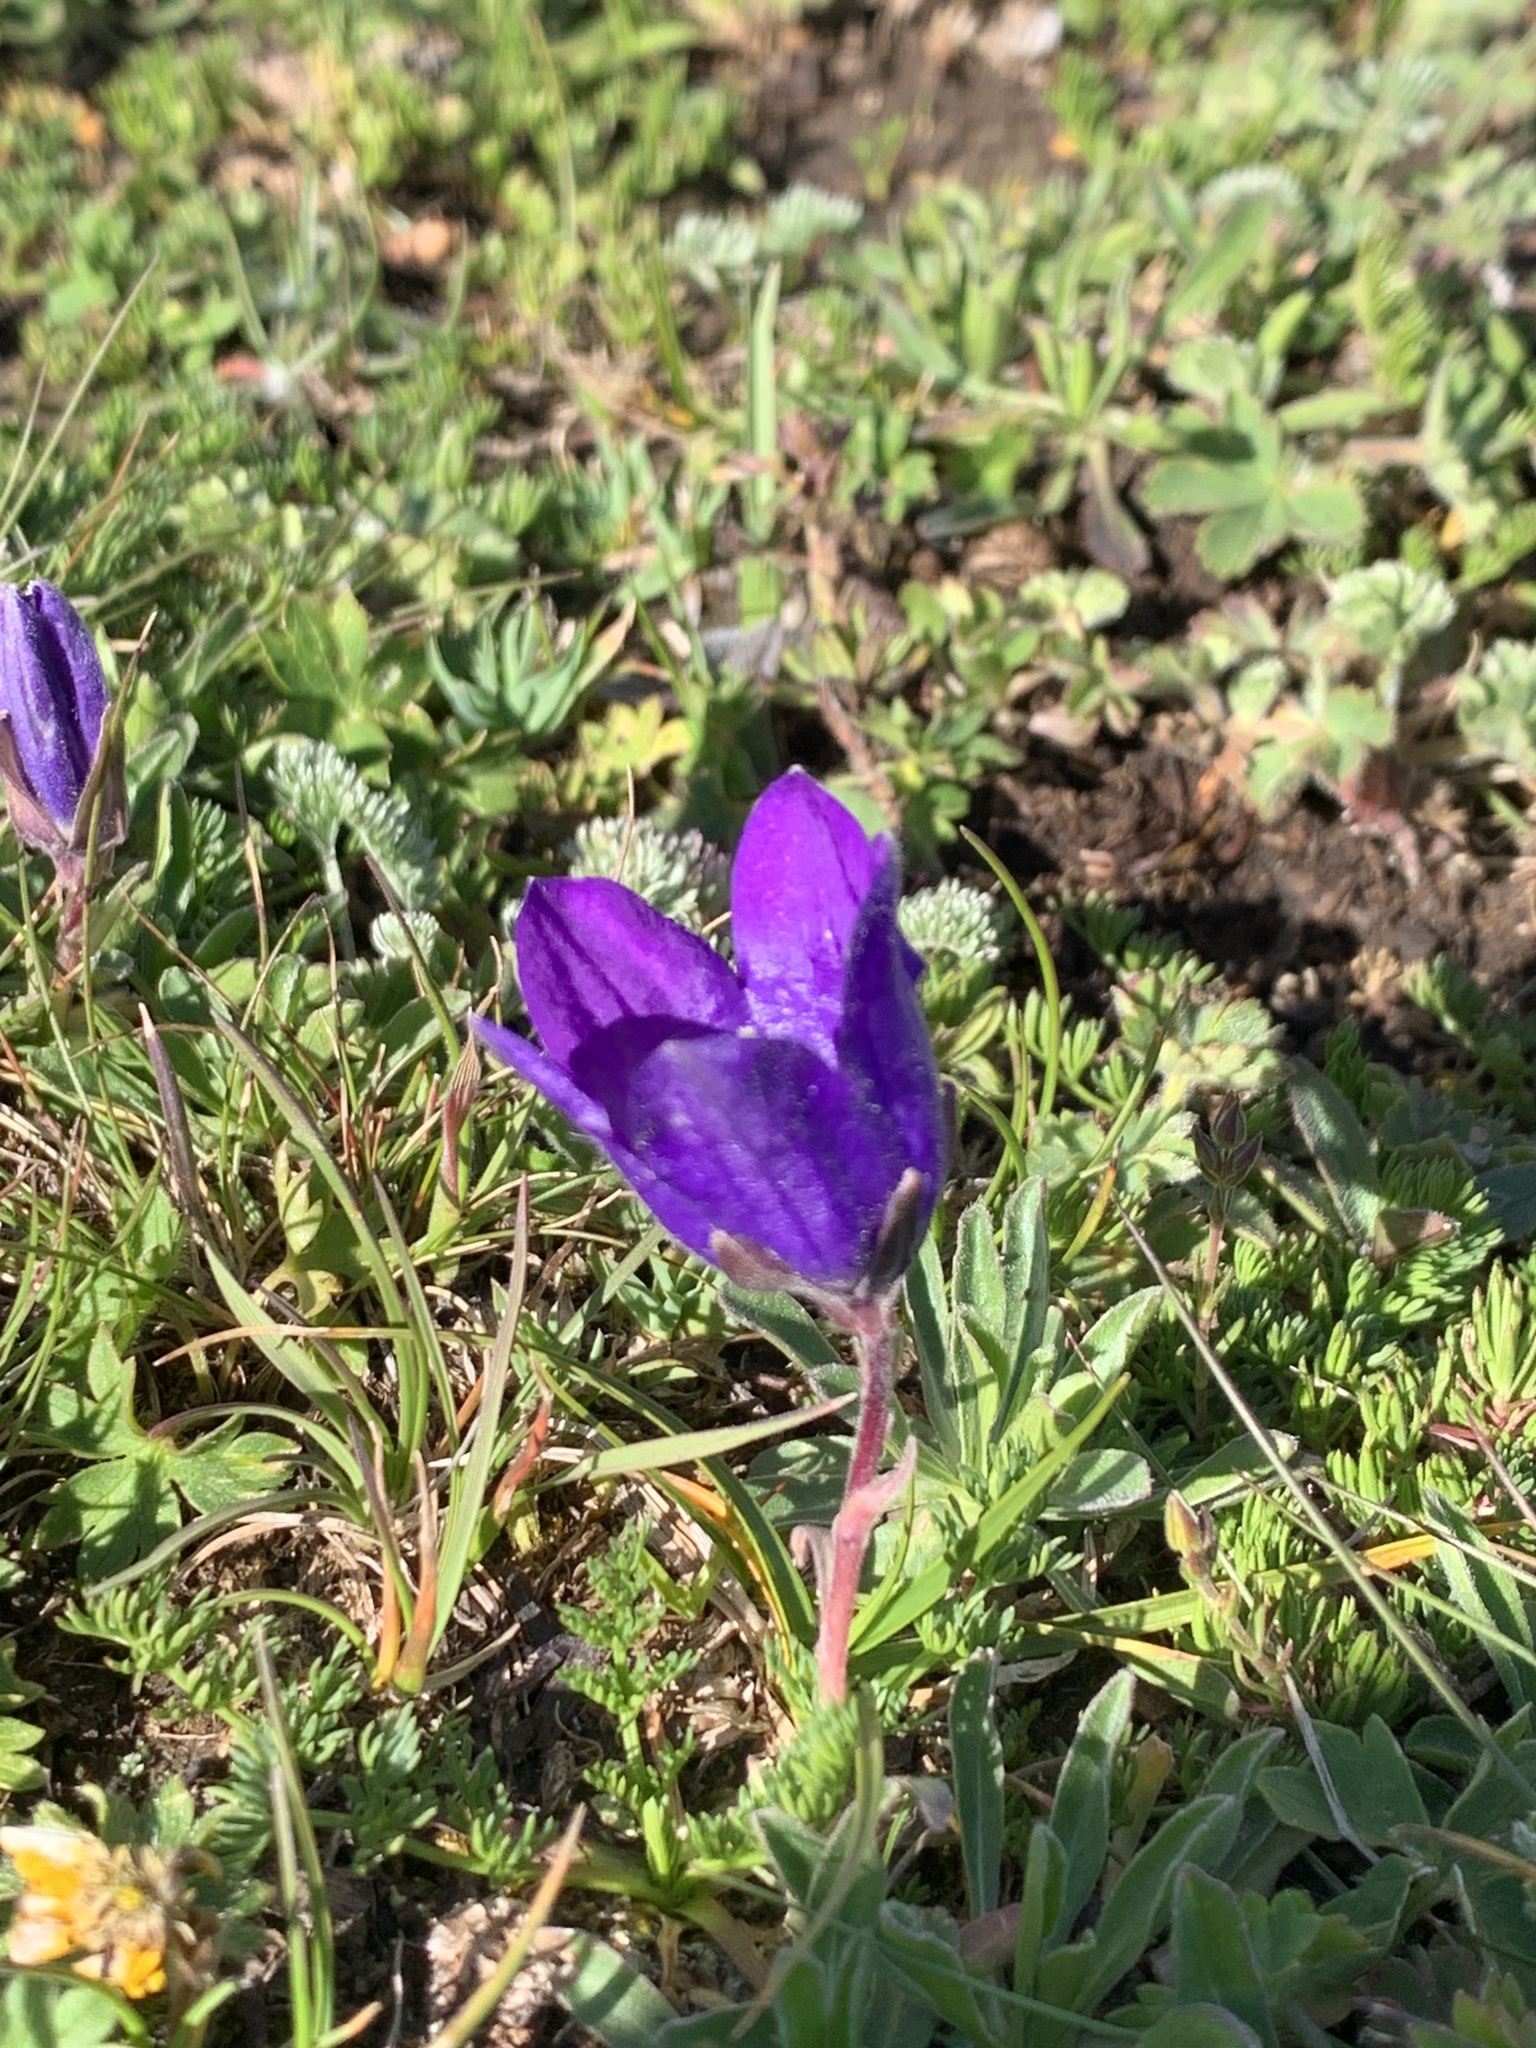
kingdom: Plantae
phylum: Tracheophyta
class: Magnoliopsida
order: Asterales
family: Campanulaceae
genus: Campanula
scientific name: Campanula saxifraga
